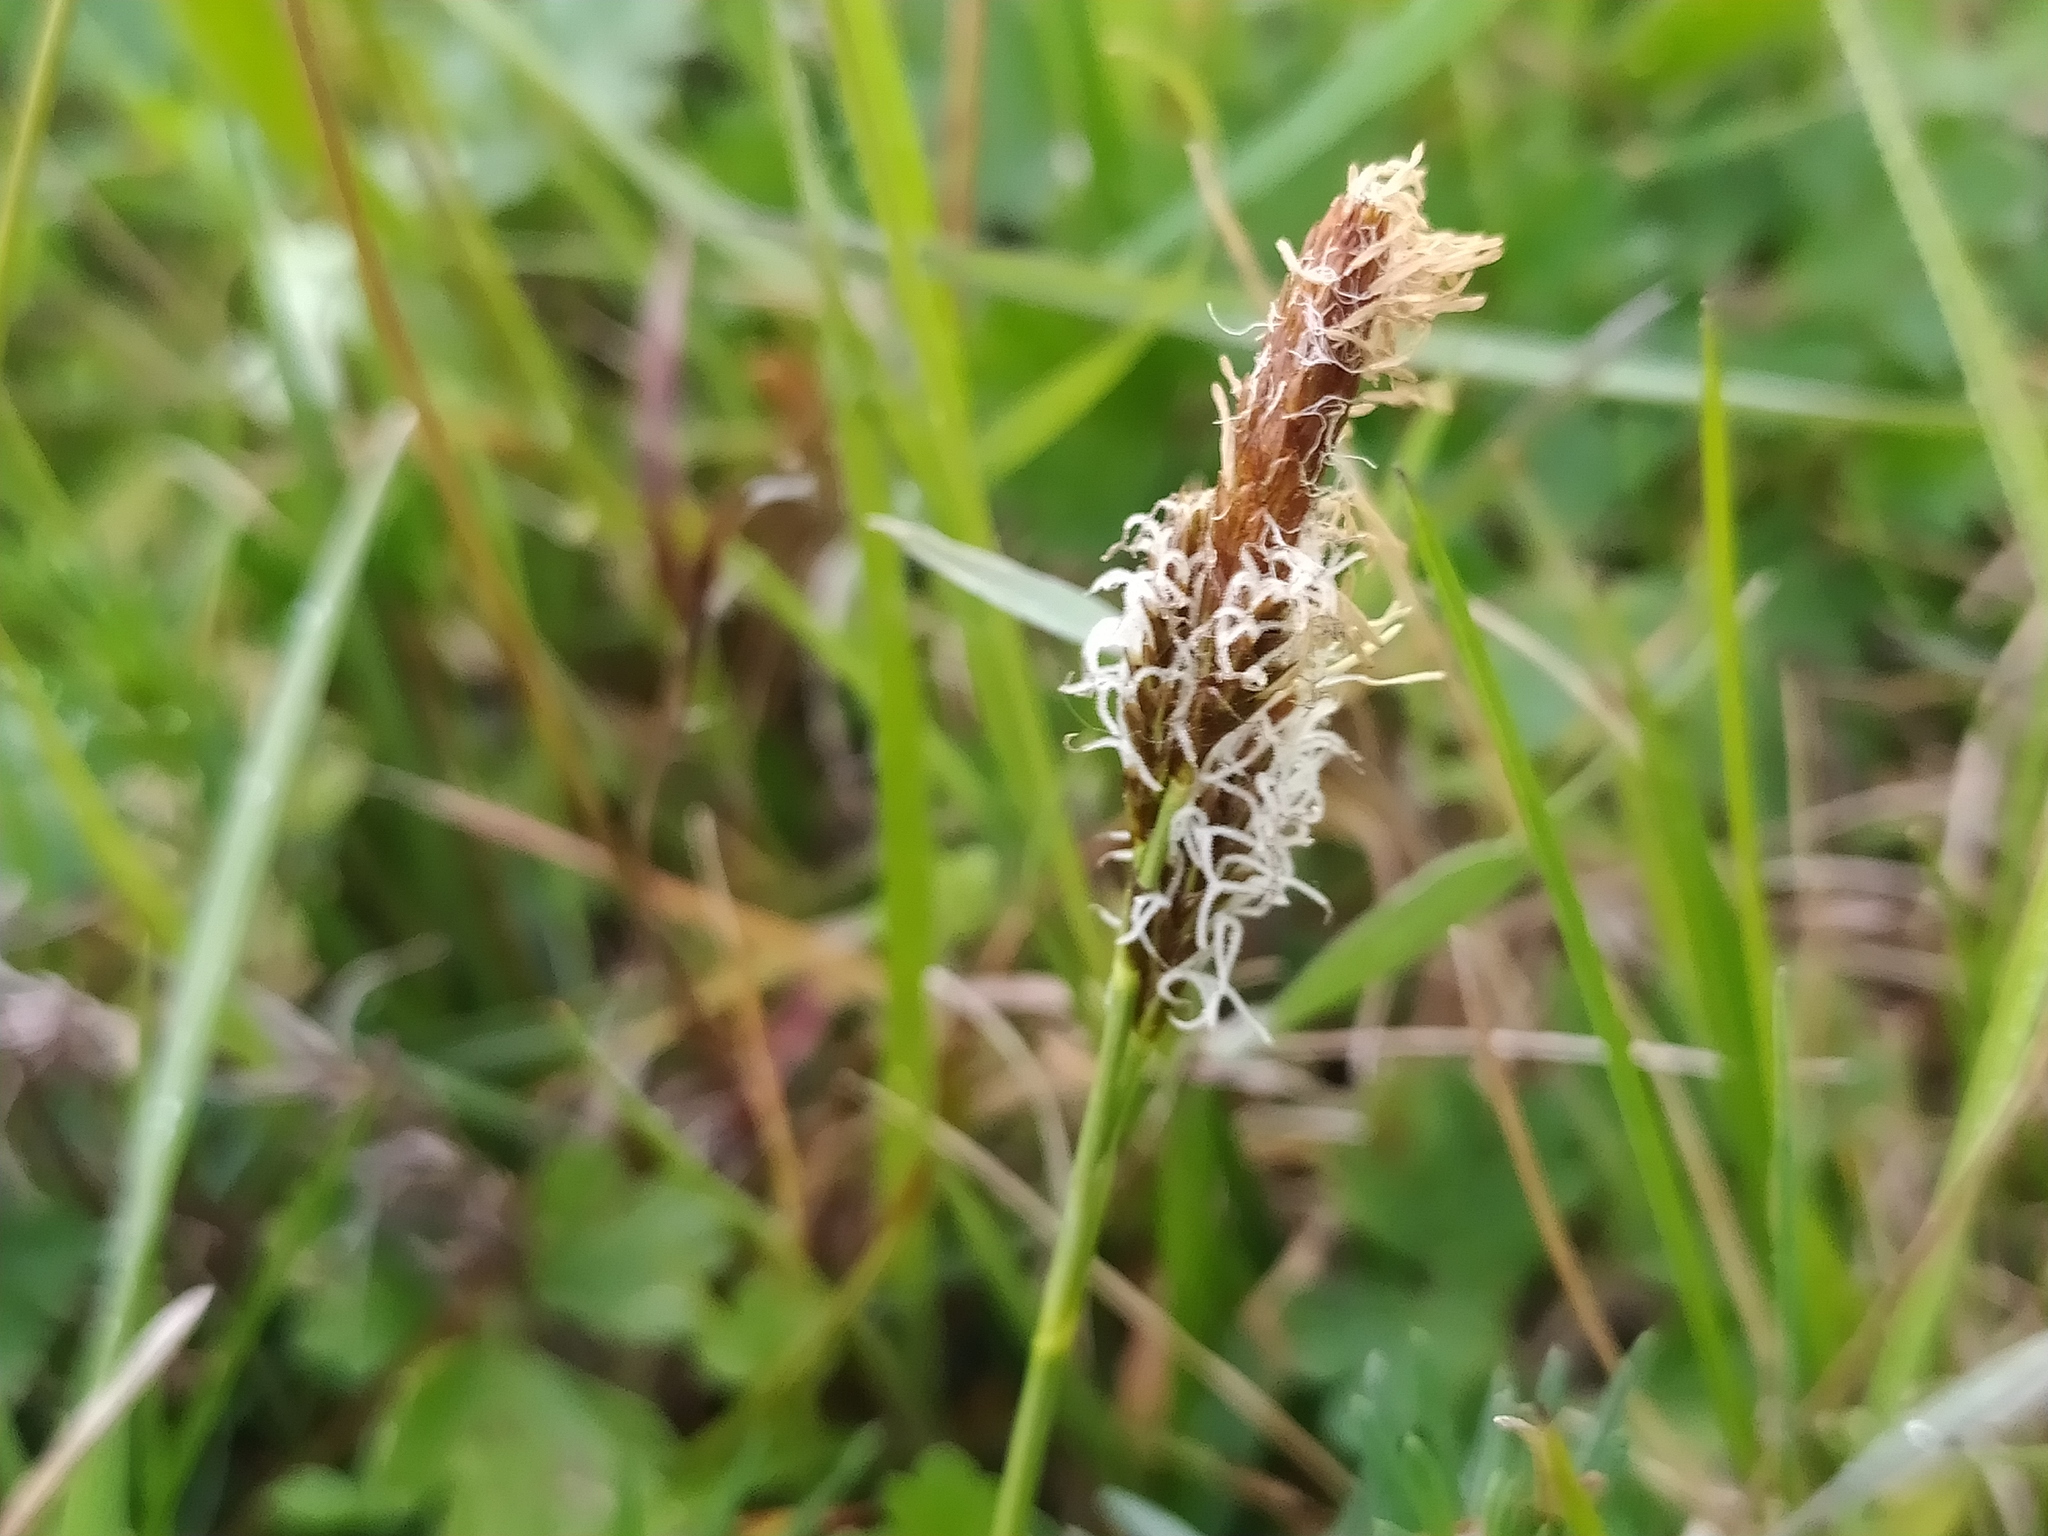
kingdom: Plantae
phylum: Tracheophyta
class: Liliopsida
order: Poales
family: Cyperaceae
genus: Carex
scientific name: Carex caryophyllea
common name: Spring sedge
